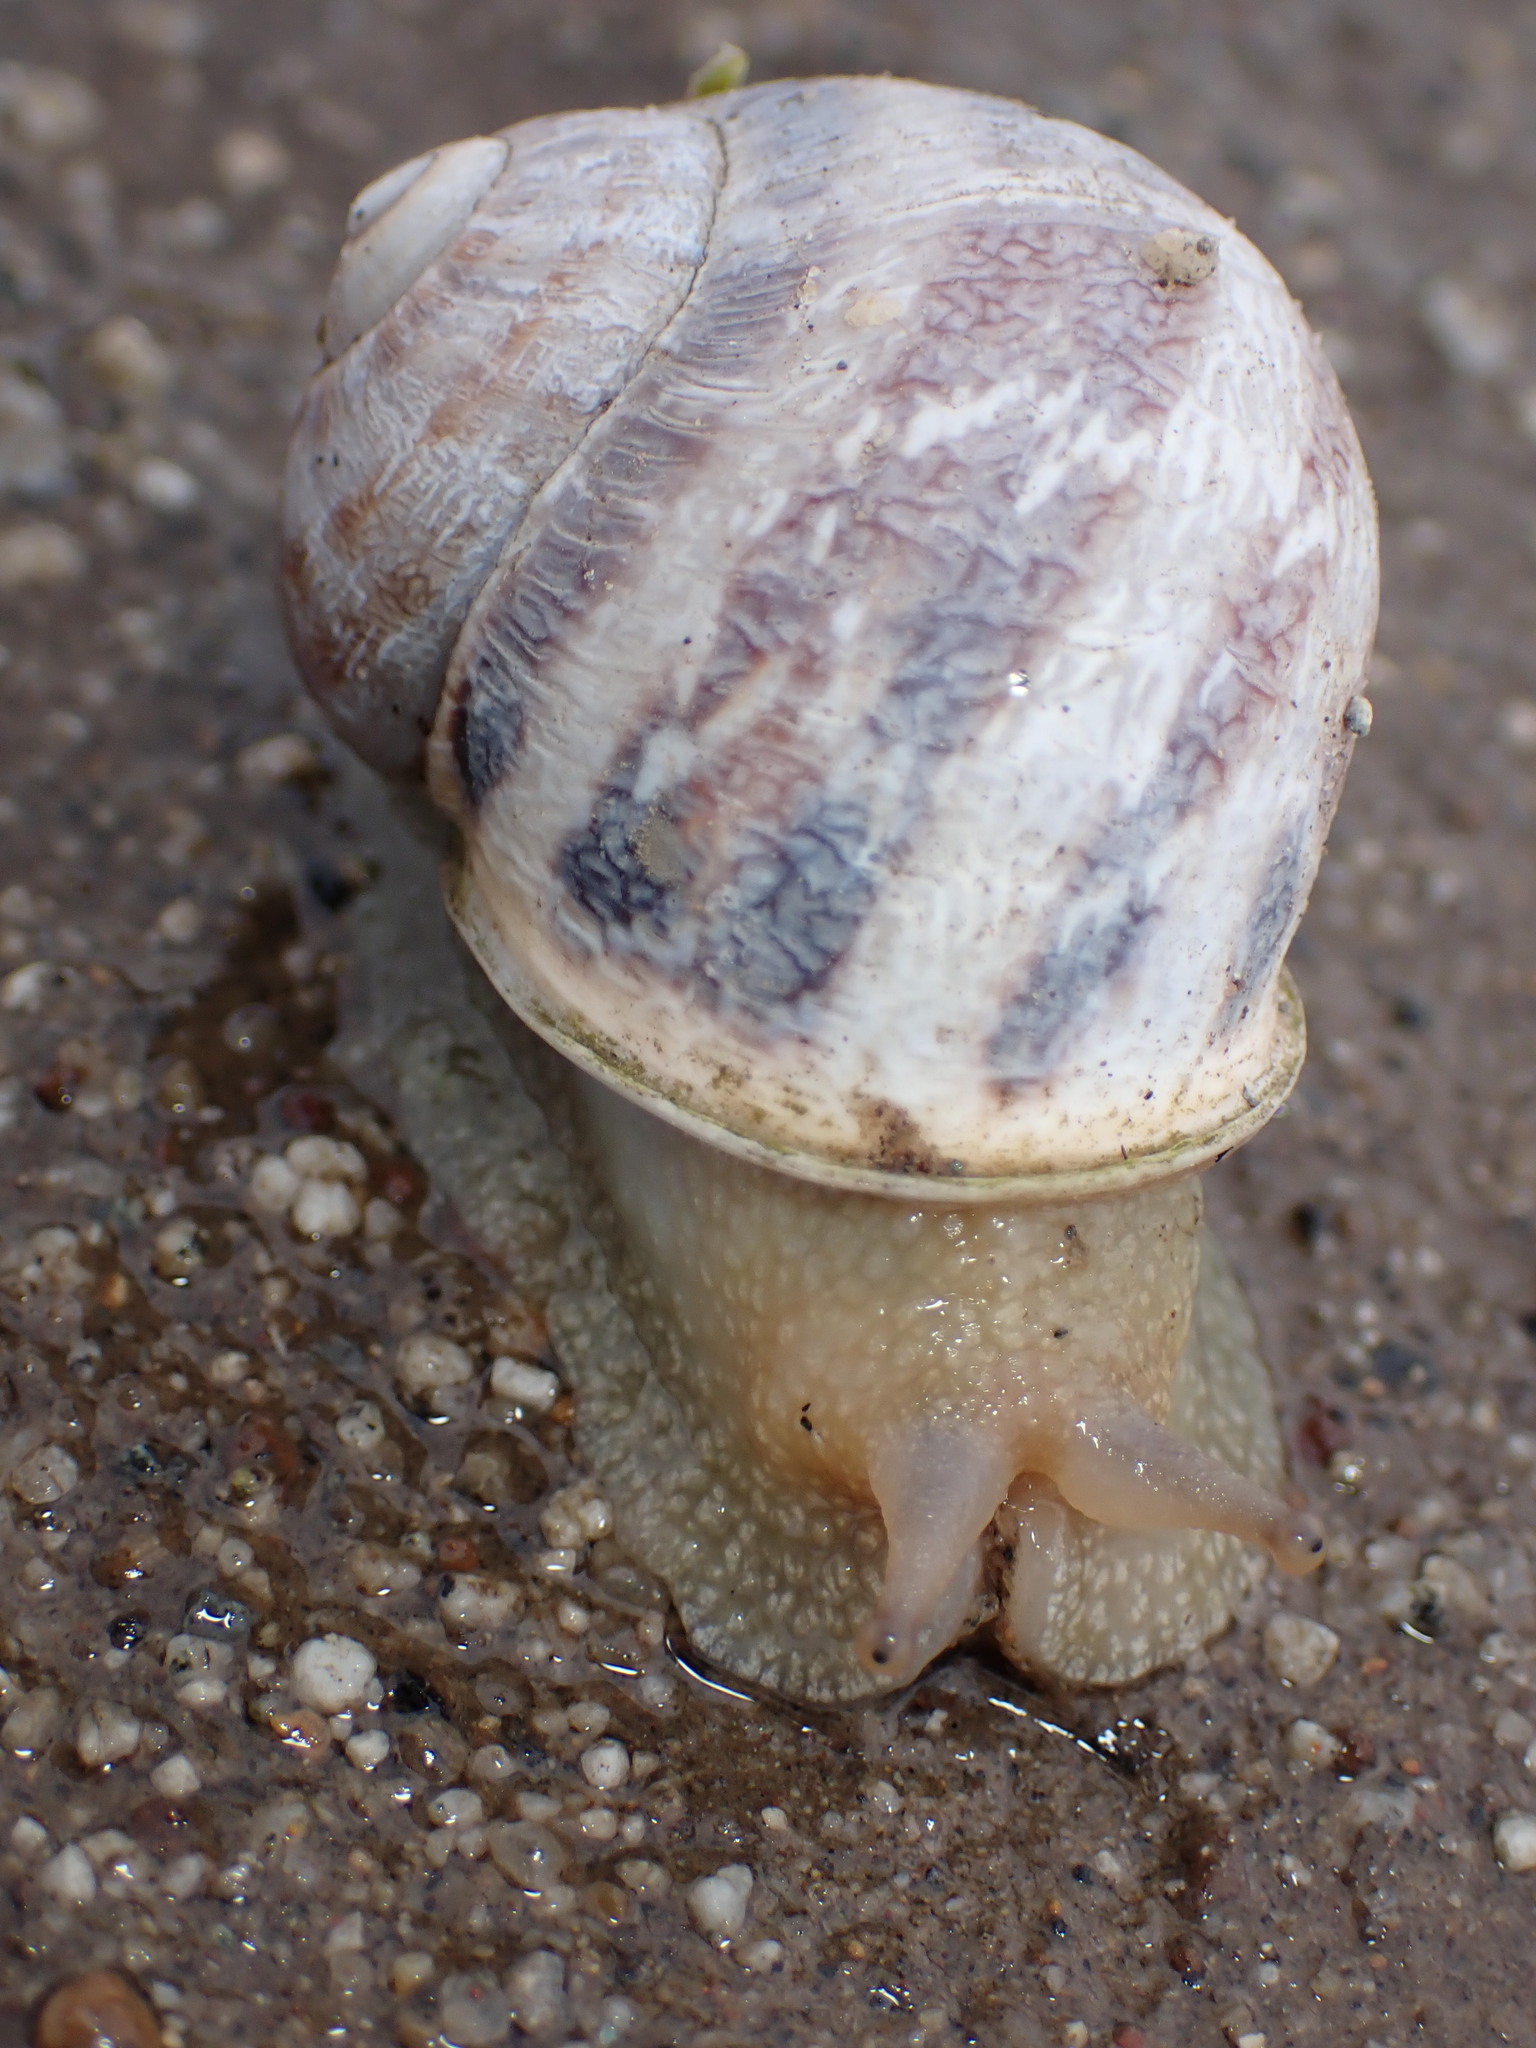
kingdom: Animalia
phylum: Mollusca
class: Gastropoda
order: Stylommatophora
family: Helicidae
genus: Cornu
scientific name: Cornu aspersum
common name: Brown garden snail
